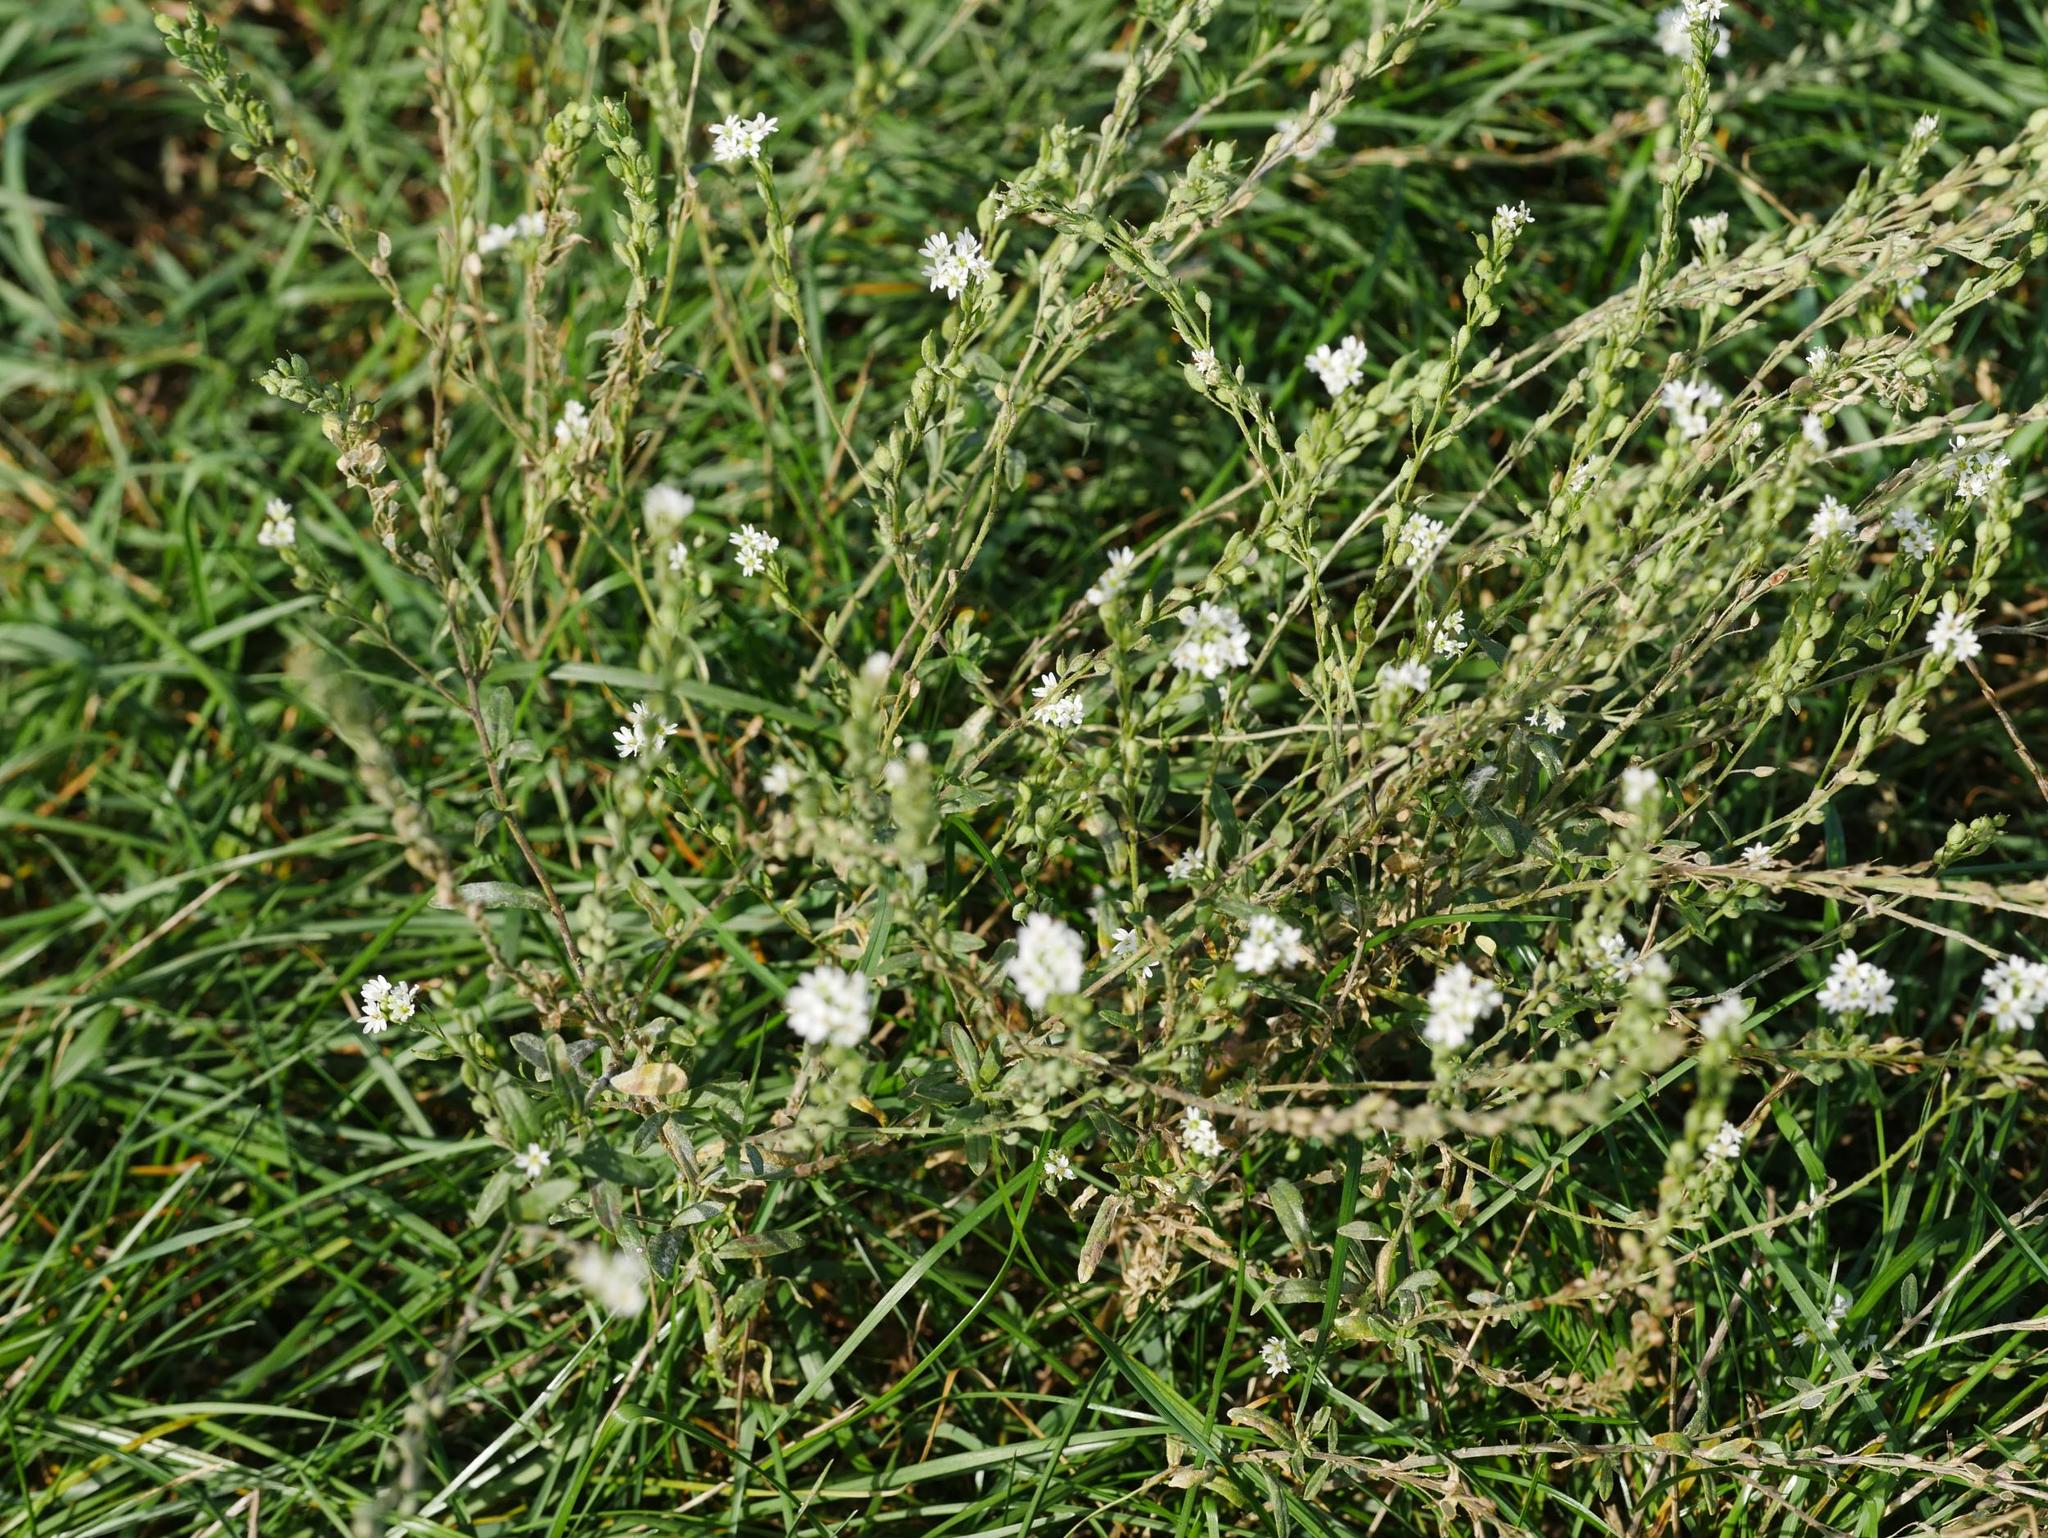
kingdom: Plantae
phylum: Tracheophyta
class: Magnoliopsida
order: Brassicales
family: Brassicaceae
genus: Berteroa
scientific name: Berteroa incana
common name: Hoary alison
